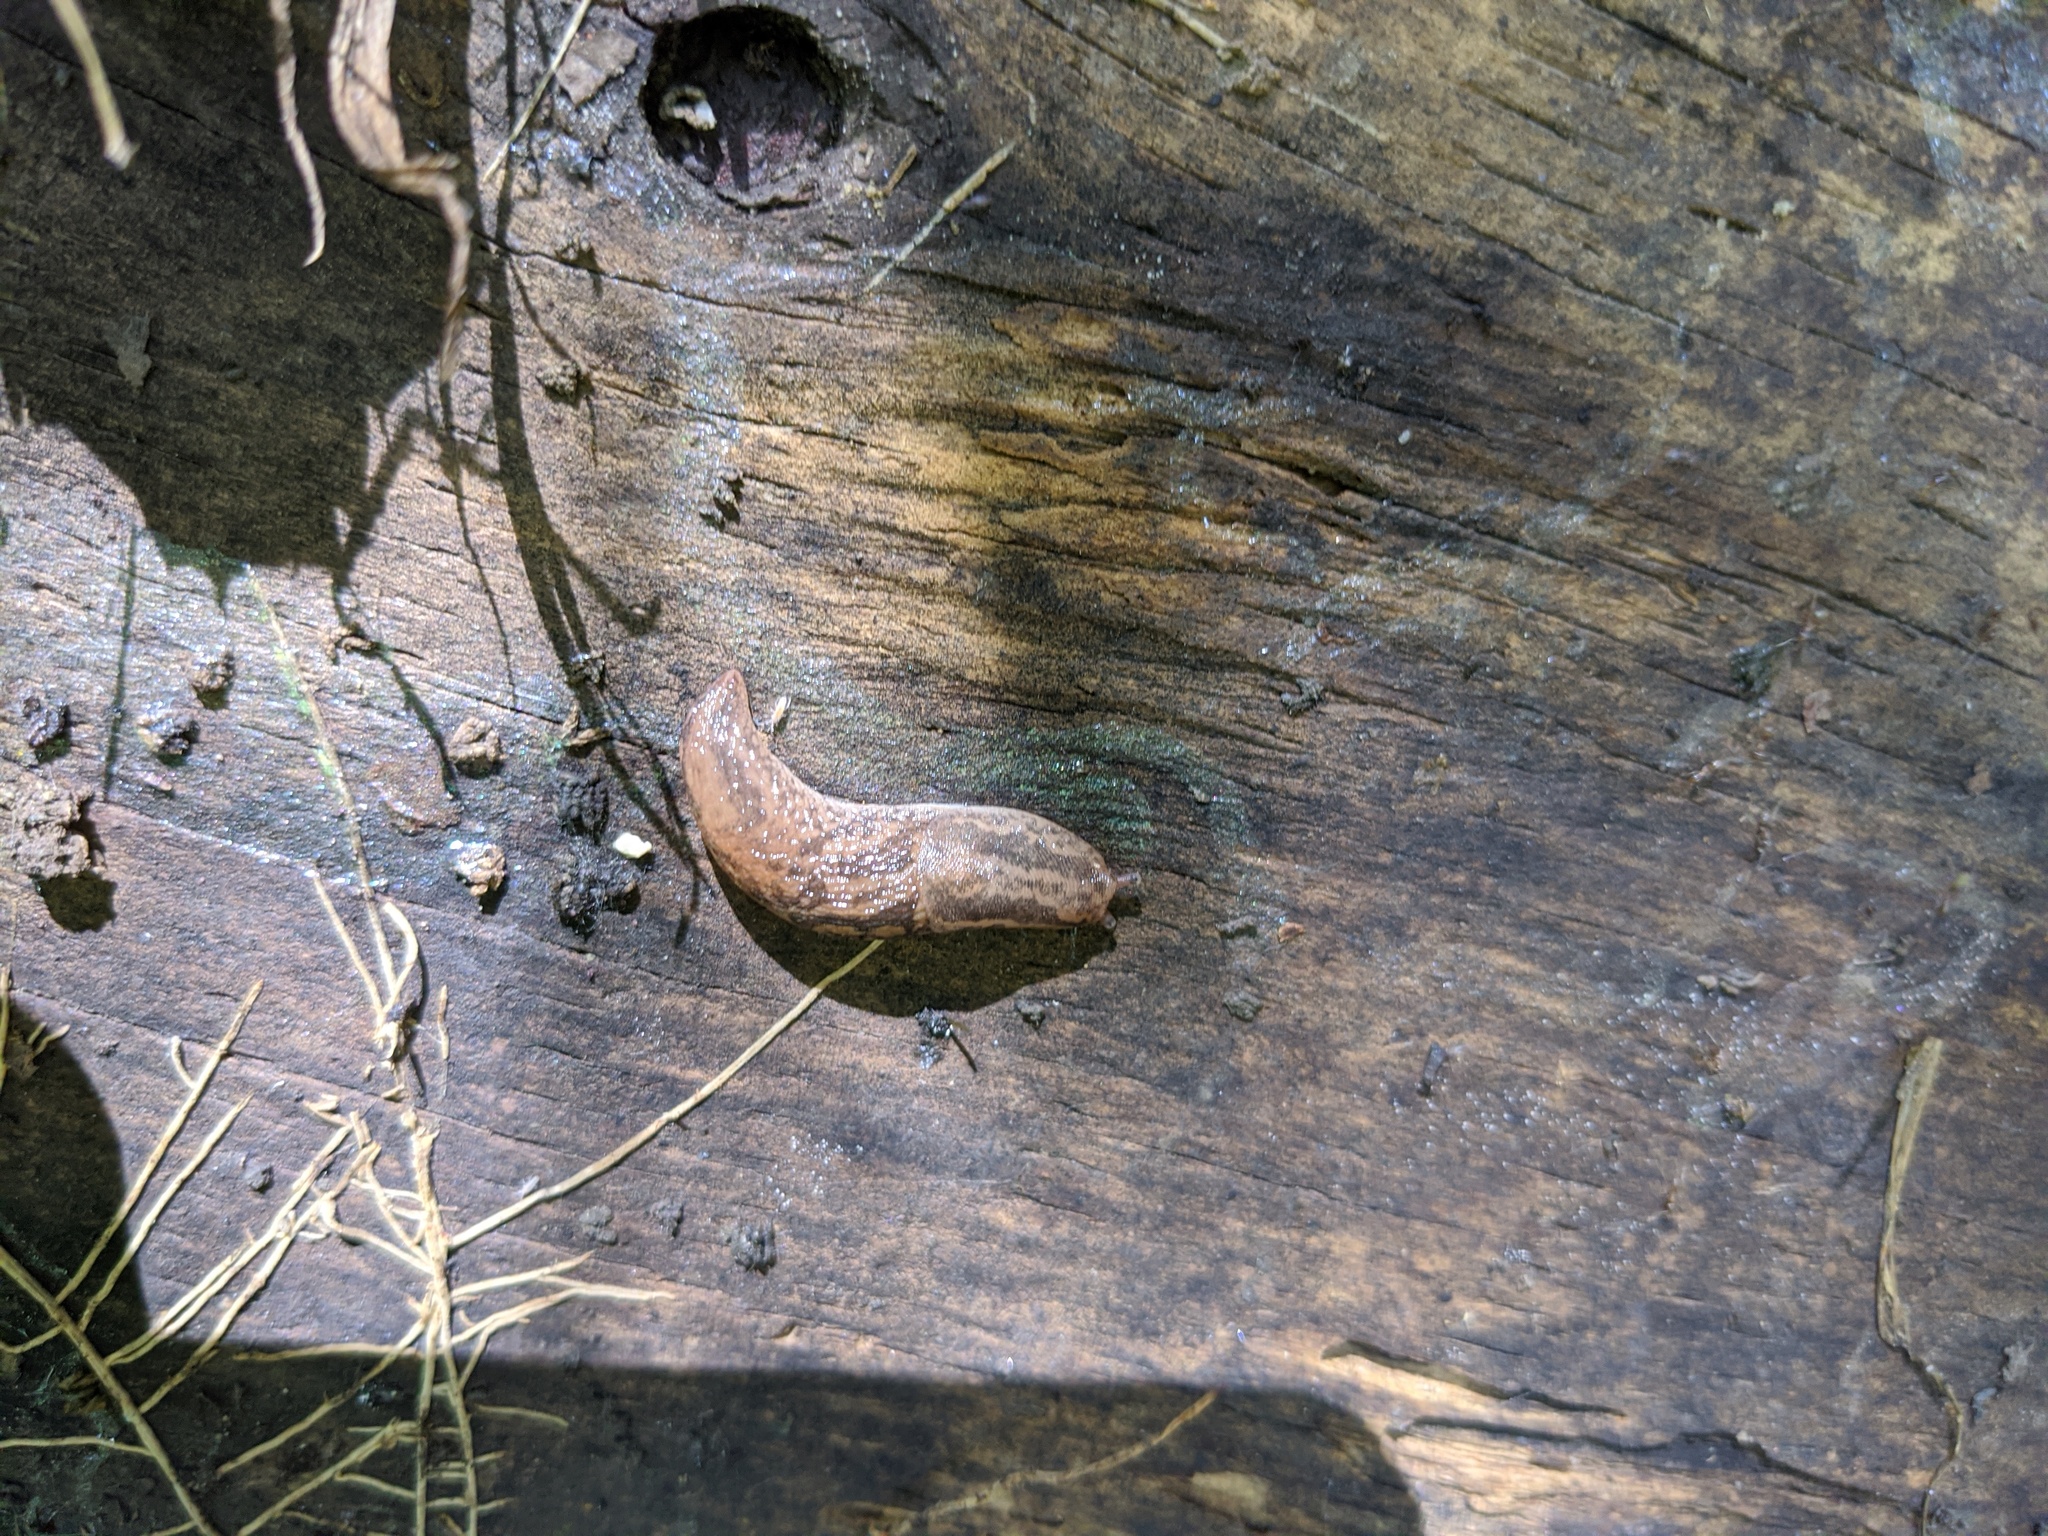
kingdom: Animalia
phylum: Mollusca
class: Gastropoda
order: Stylommatophora
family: Limacidae
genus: Ambigolimax
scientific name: Ambigolimax
